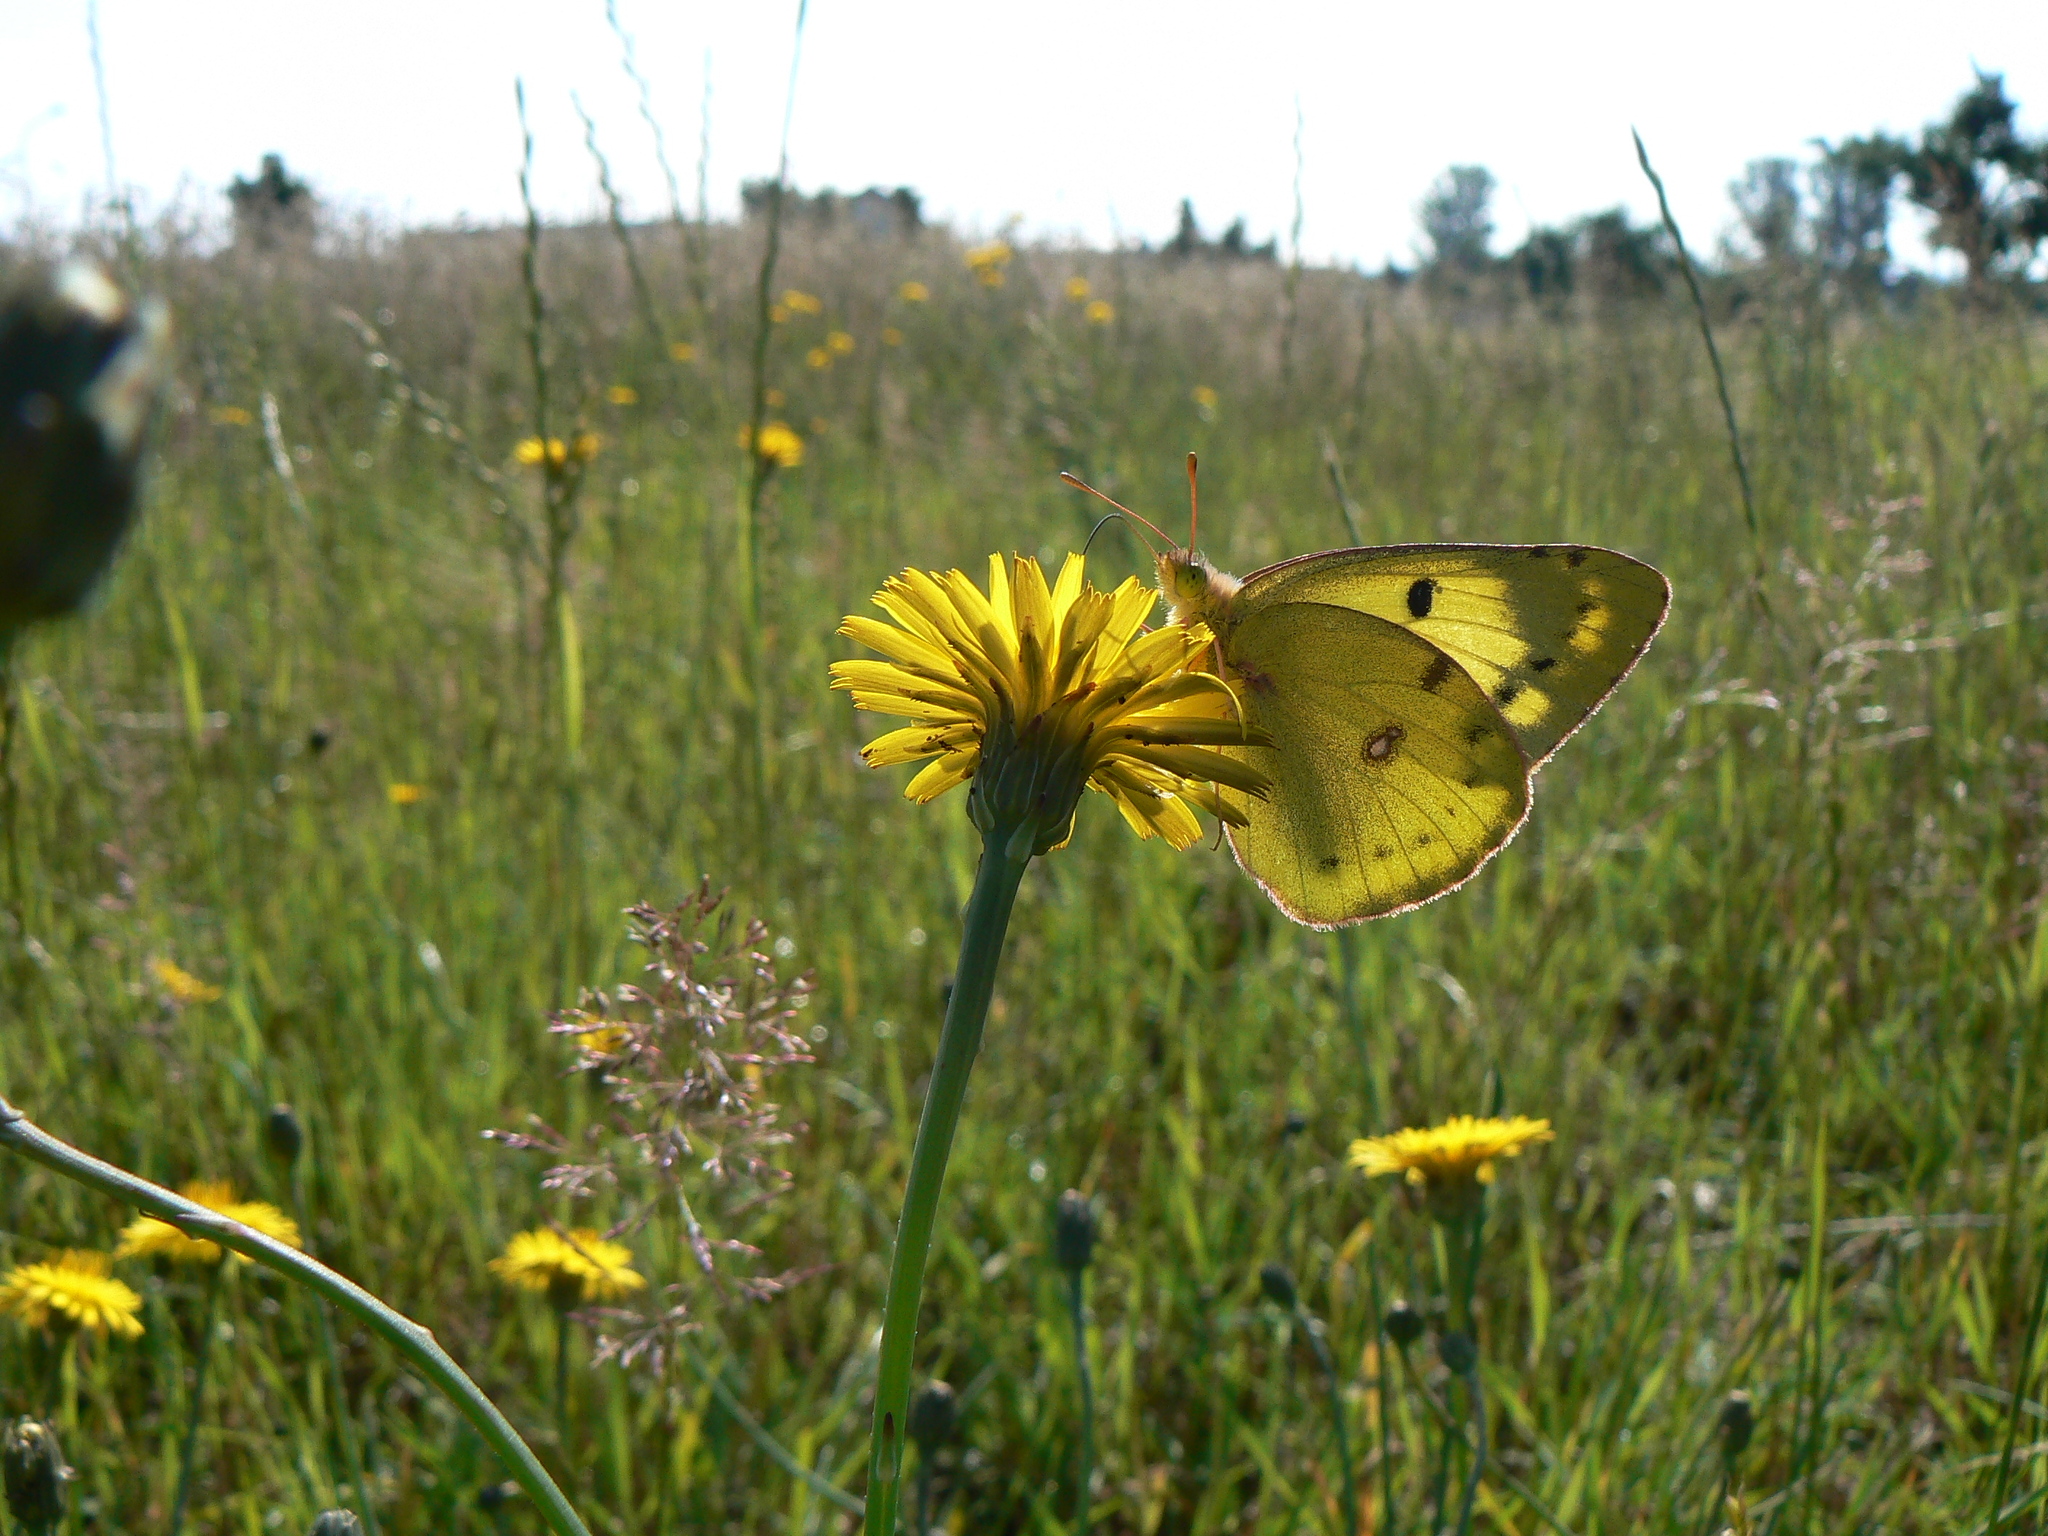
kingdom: Animalia
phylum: Arthropoda
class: Insecta
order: Lepidoptera
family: Pieridae
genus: Colias
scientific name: Colias hyale
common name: Pale clouded yellow
